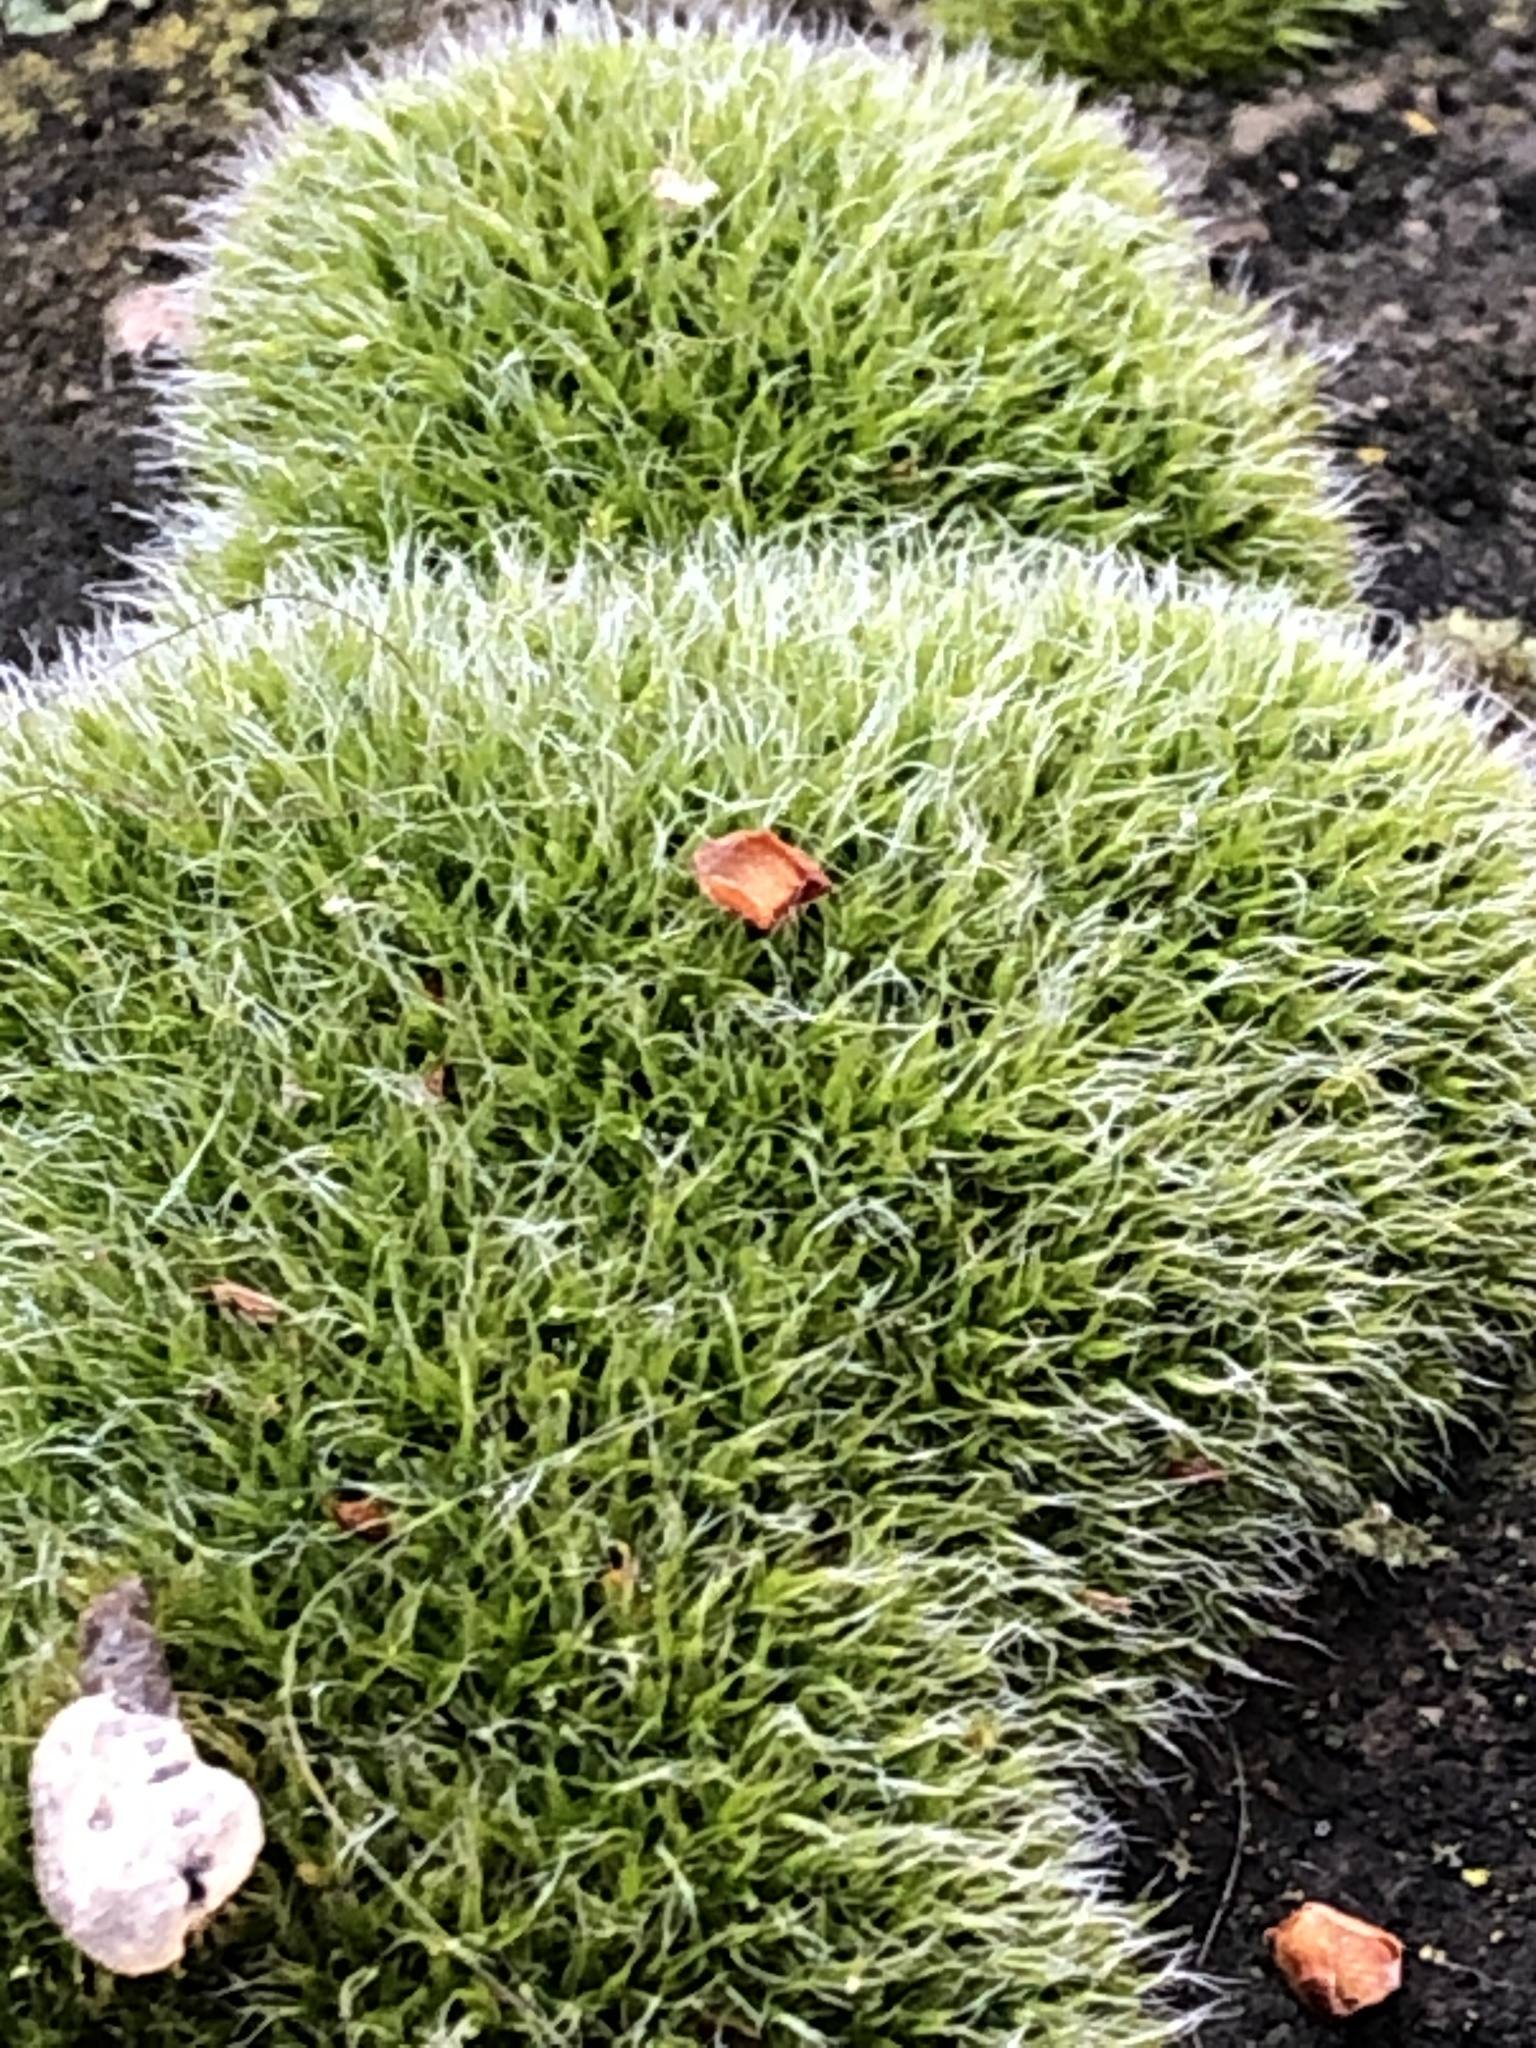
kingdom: Plantae
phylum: Bryophyta
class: Bryopsida
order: Grimmiales
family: Grimmiaceae
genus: Grimmia
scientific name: Grimmia pulvinata
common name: Grey-cushioned grimmia
